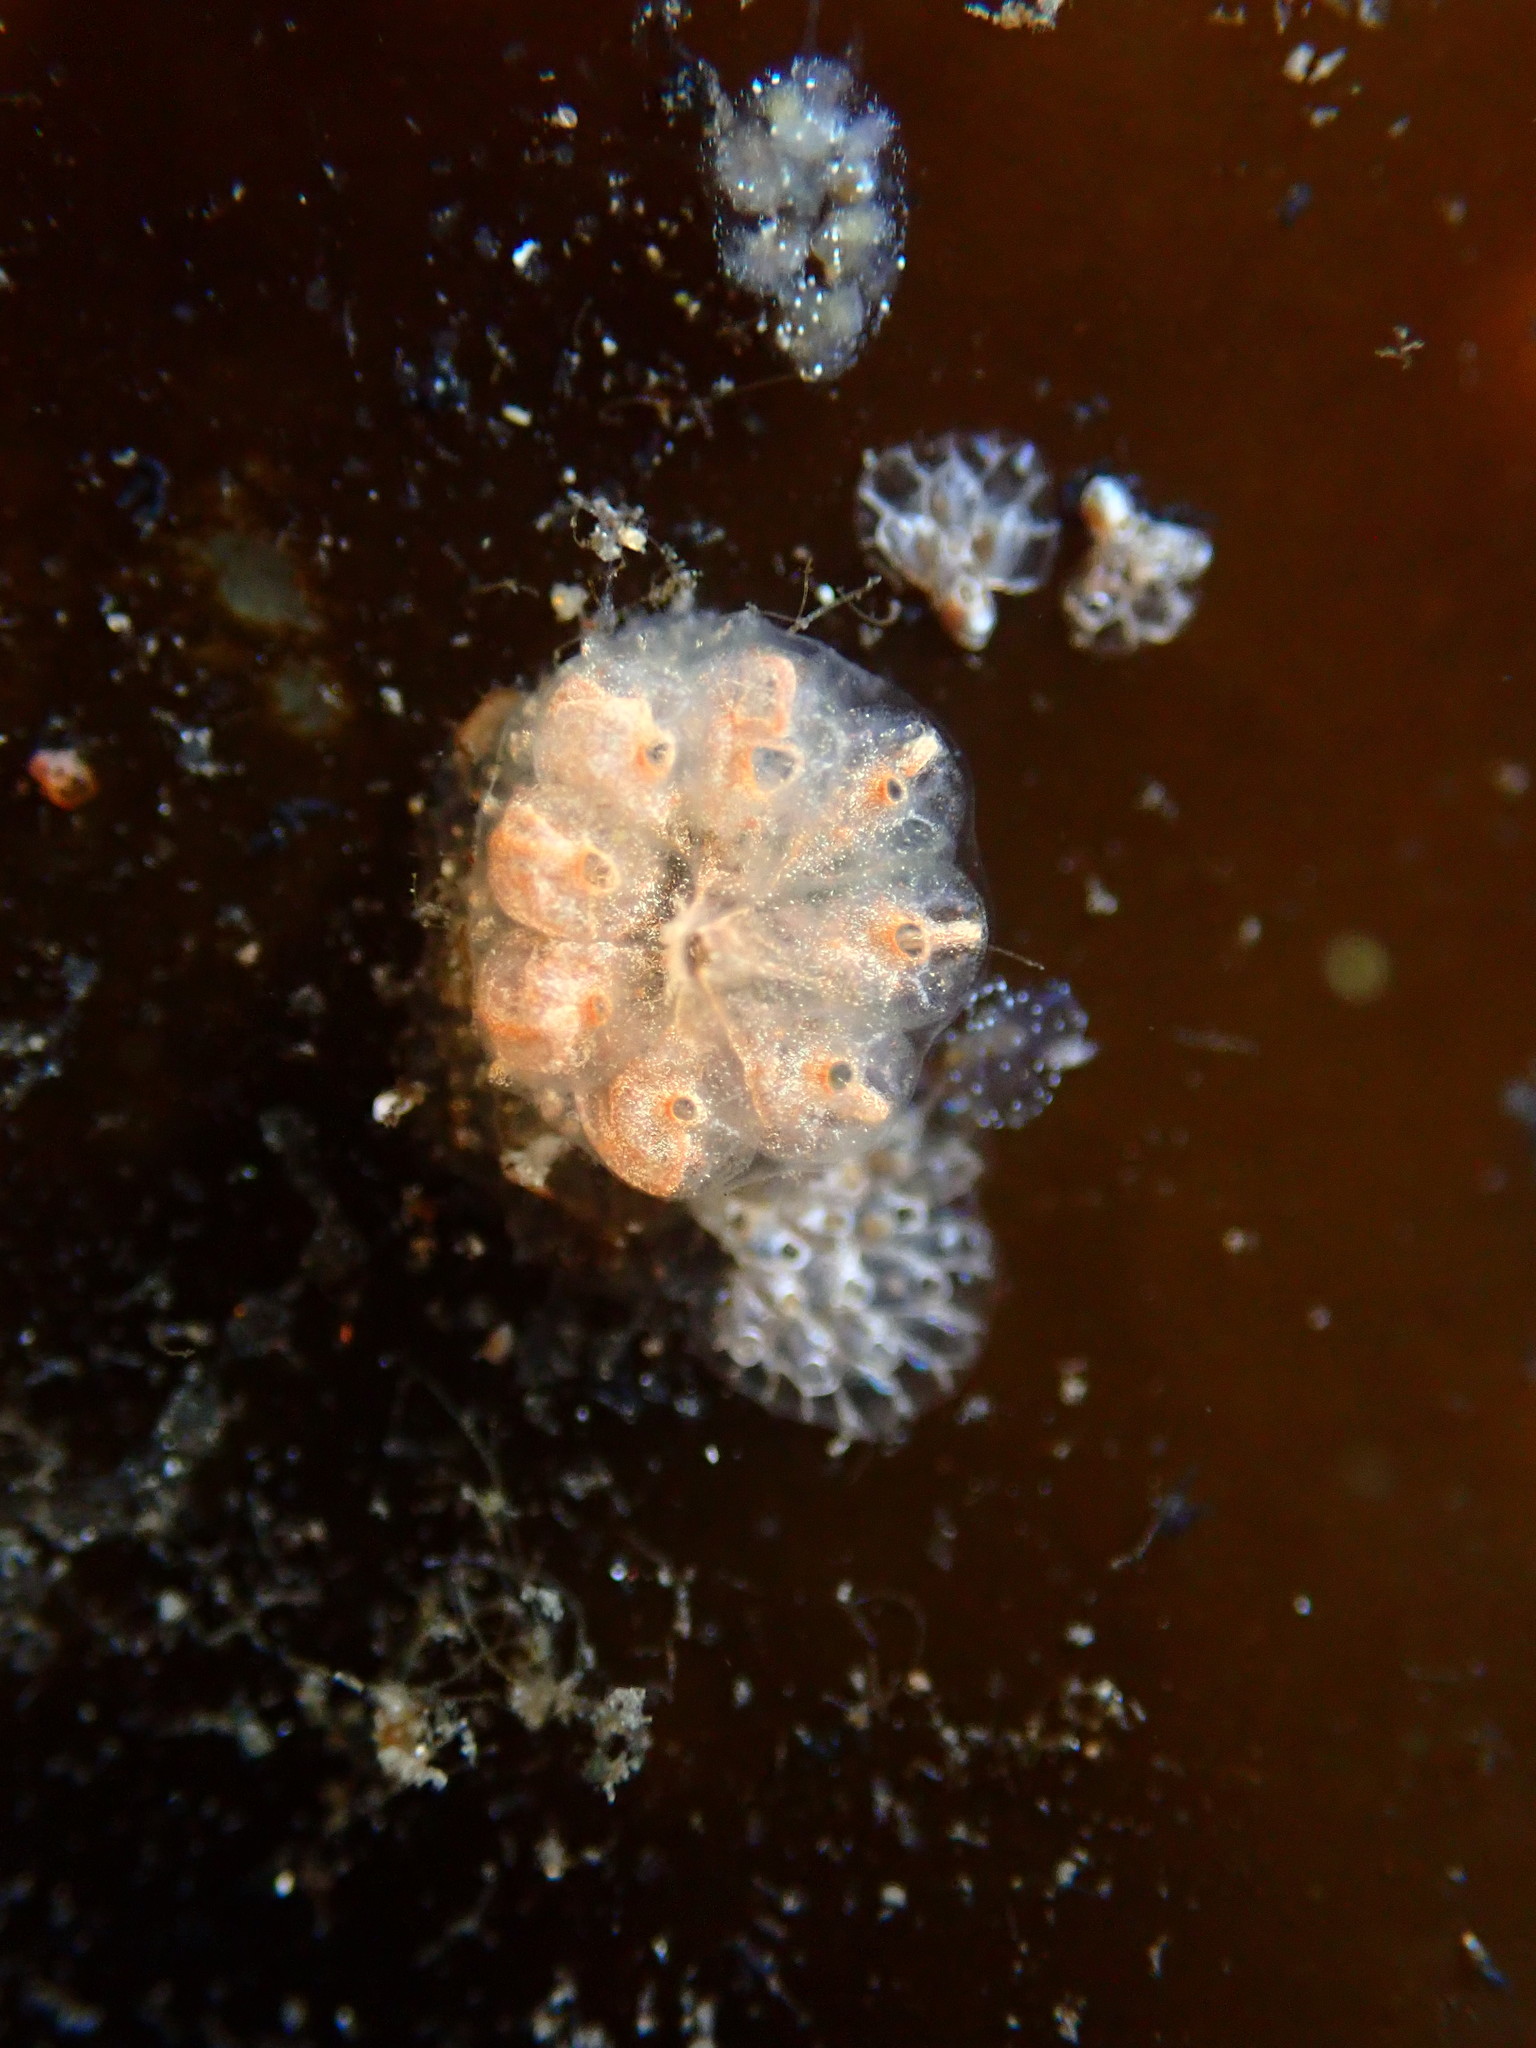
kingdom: Animalia
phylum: Chordata
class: Ascidiacea
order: Stolidobranchia
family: Styelidae
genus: Botryllus
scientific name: Botryllus schlosseri
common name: Golden star tunicate
